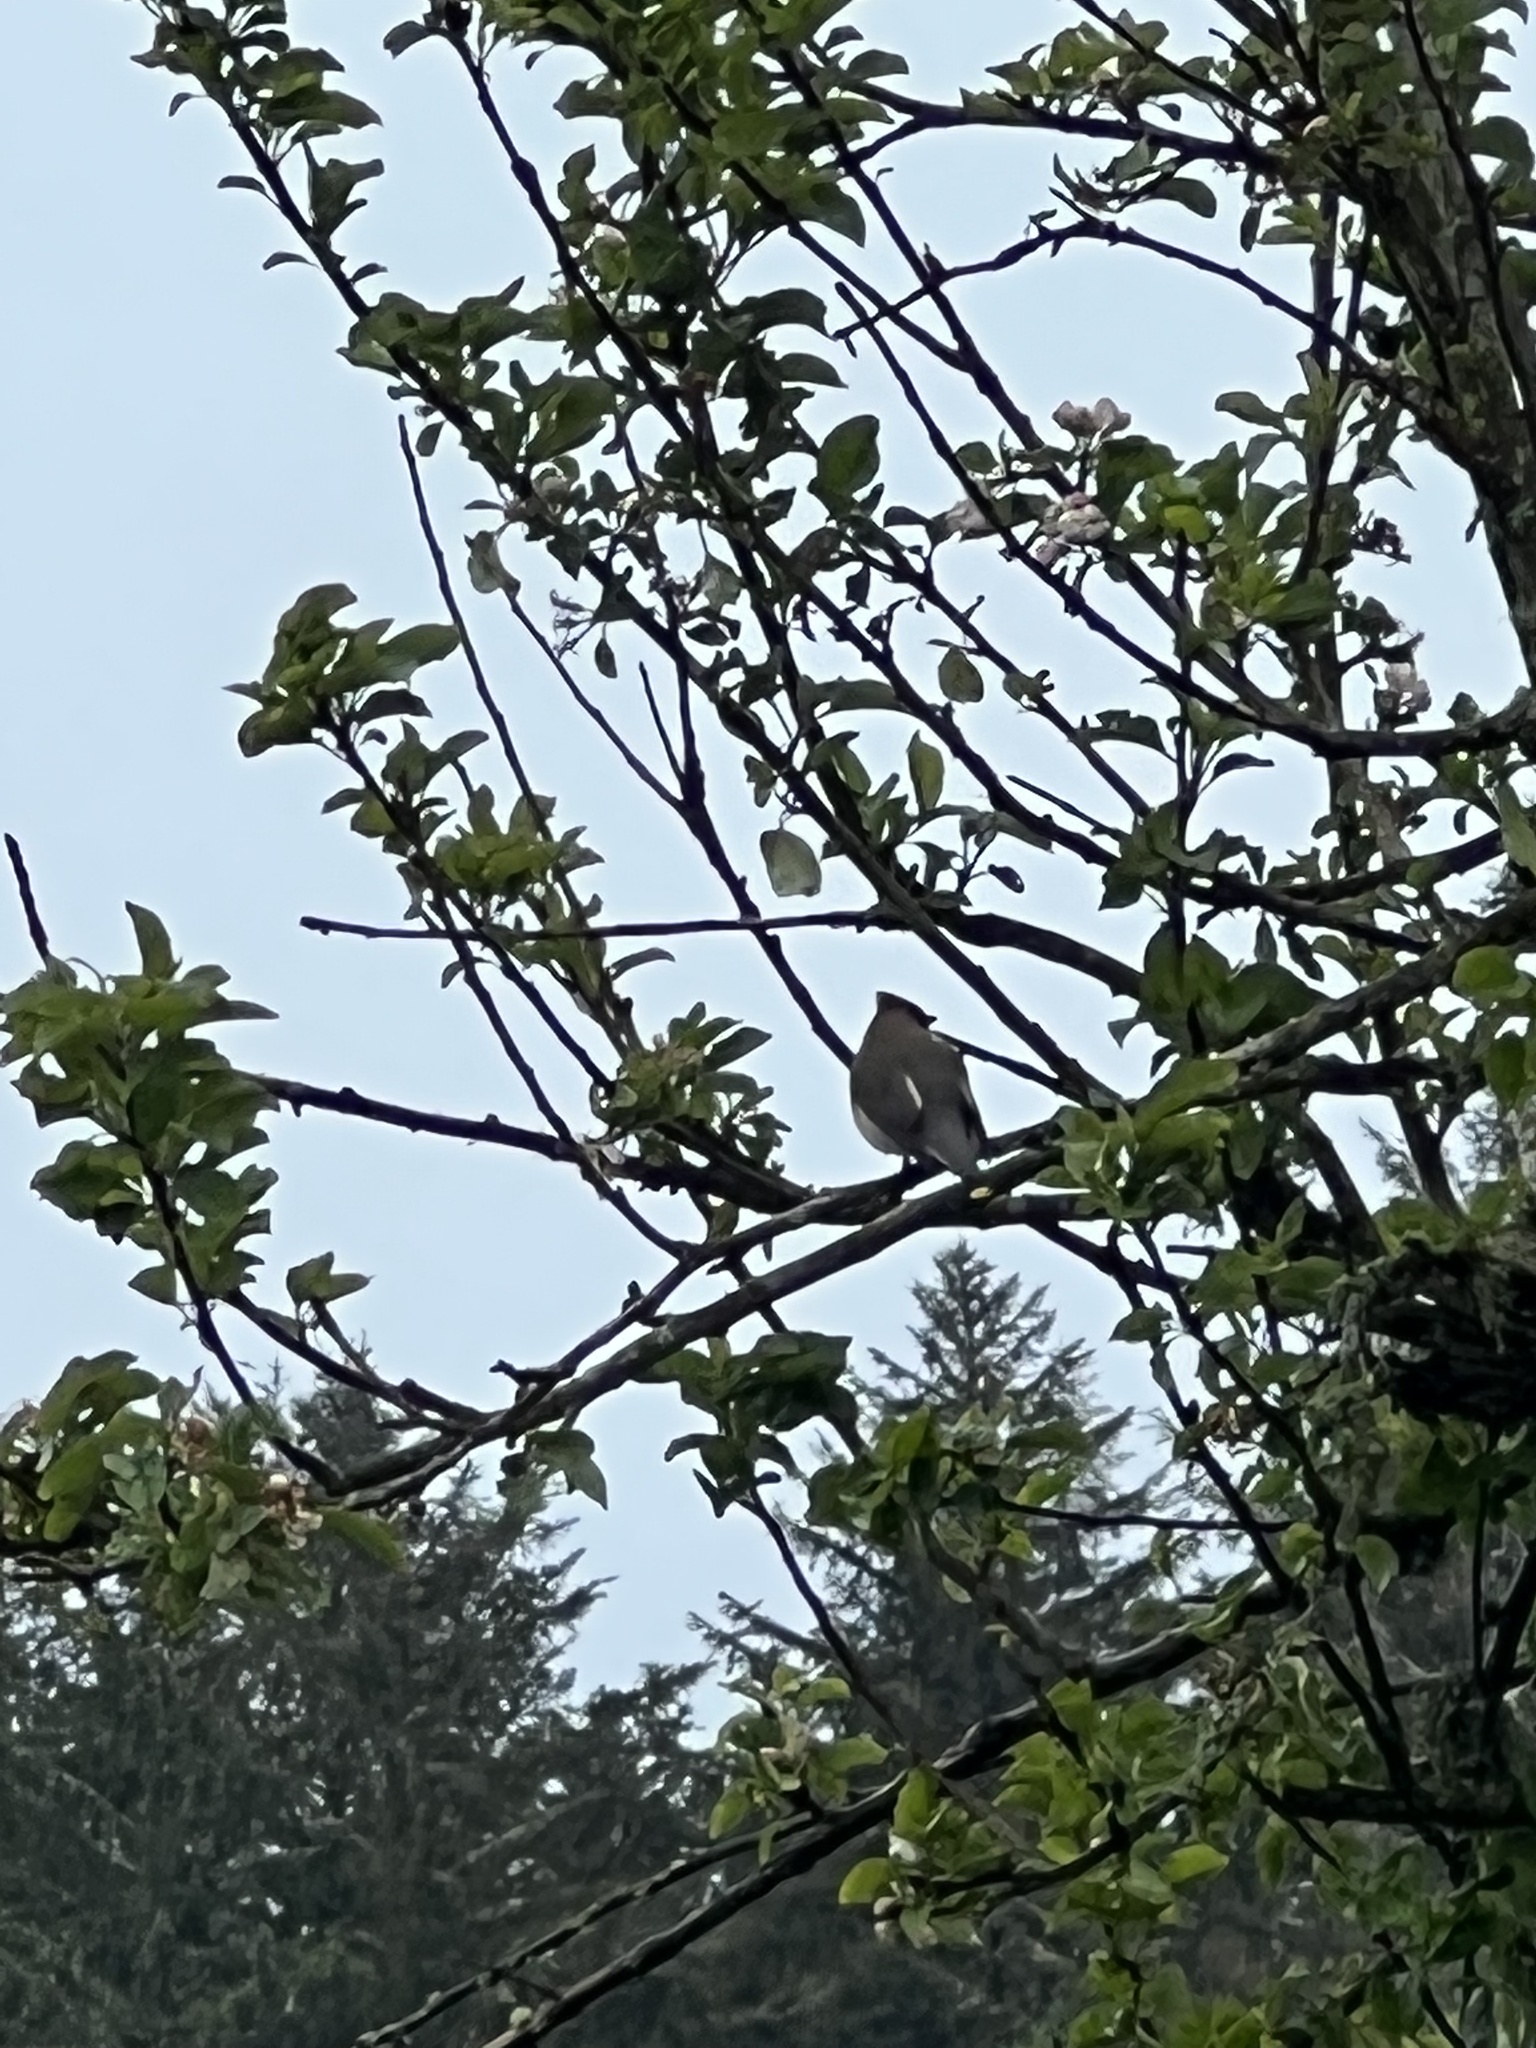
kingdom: Animalia
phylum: Chordata
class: Aves
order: Passeriformes
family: Bombycillidae
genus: Bombycilla
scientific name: Bombycilla cedrorum
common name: Cedar waxwing
